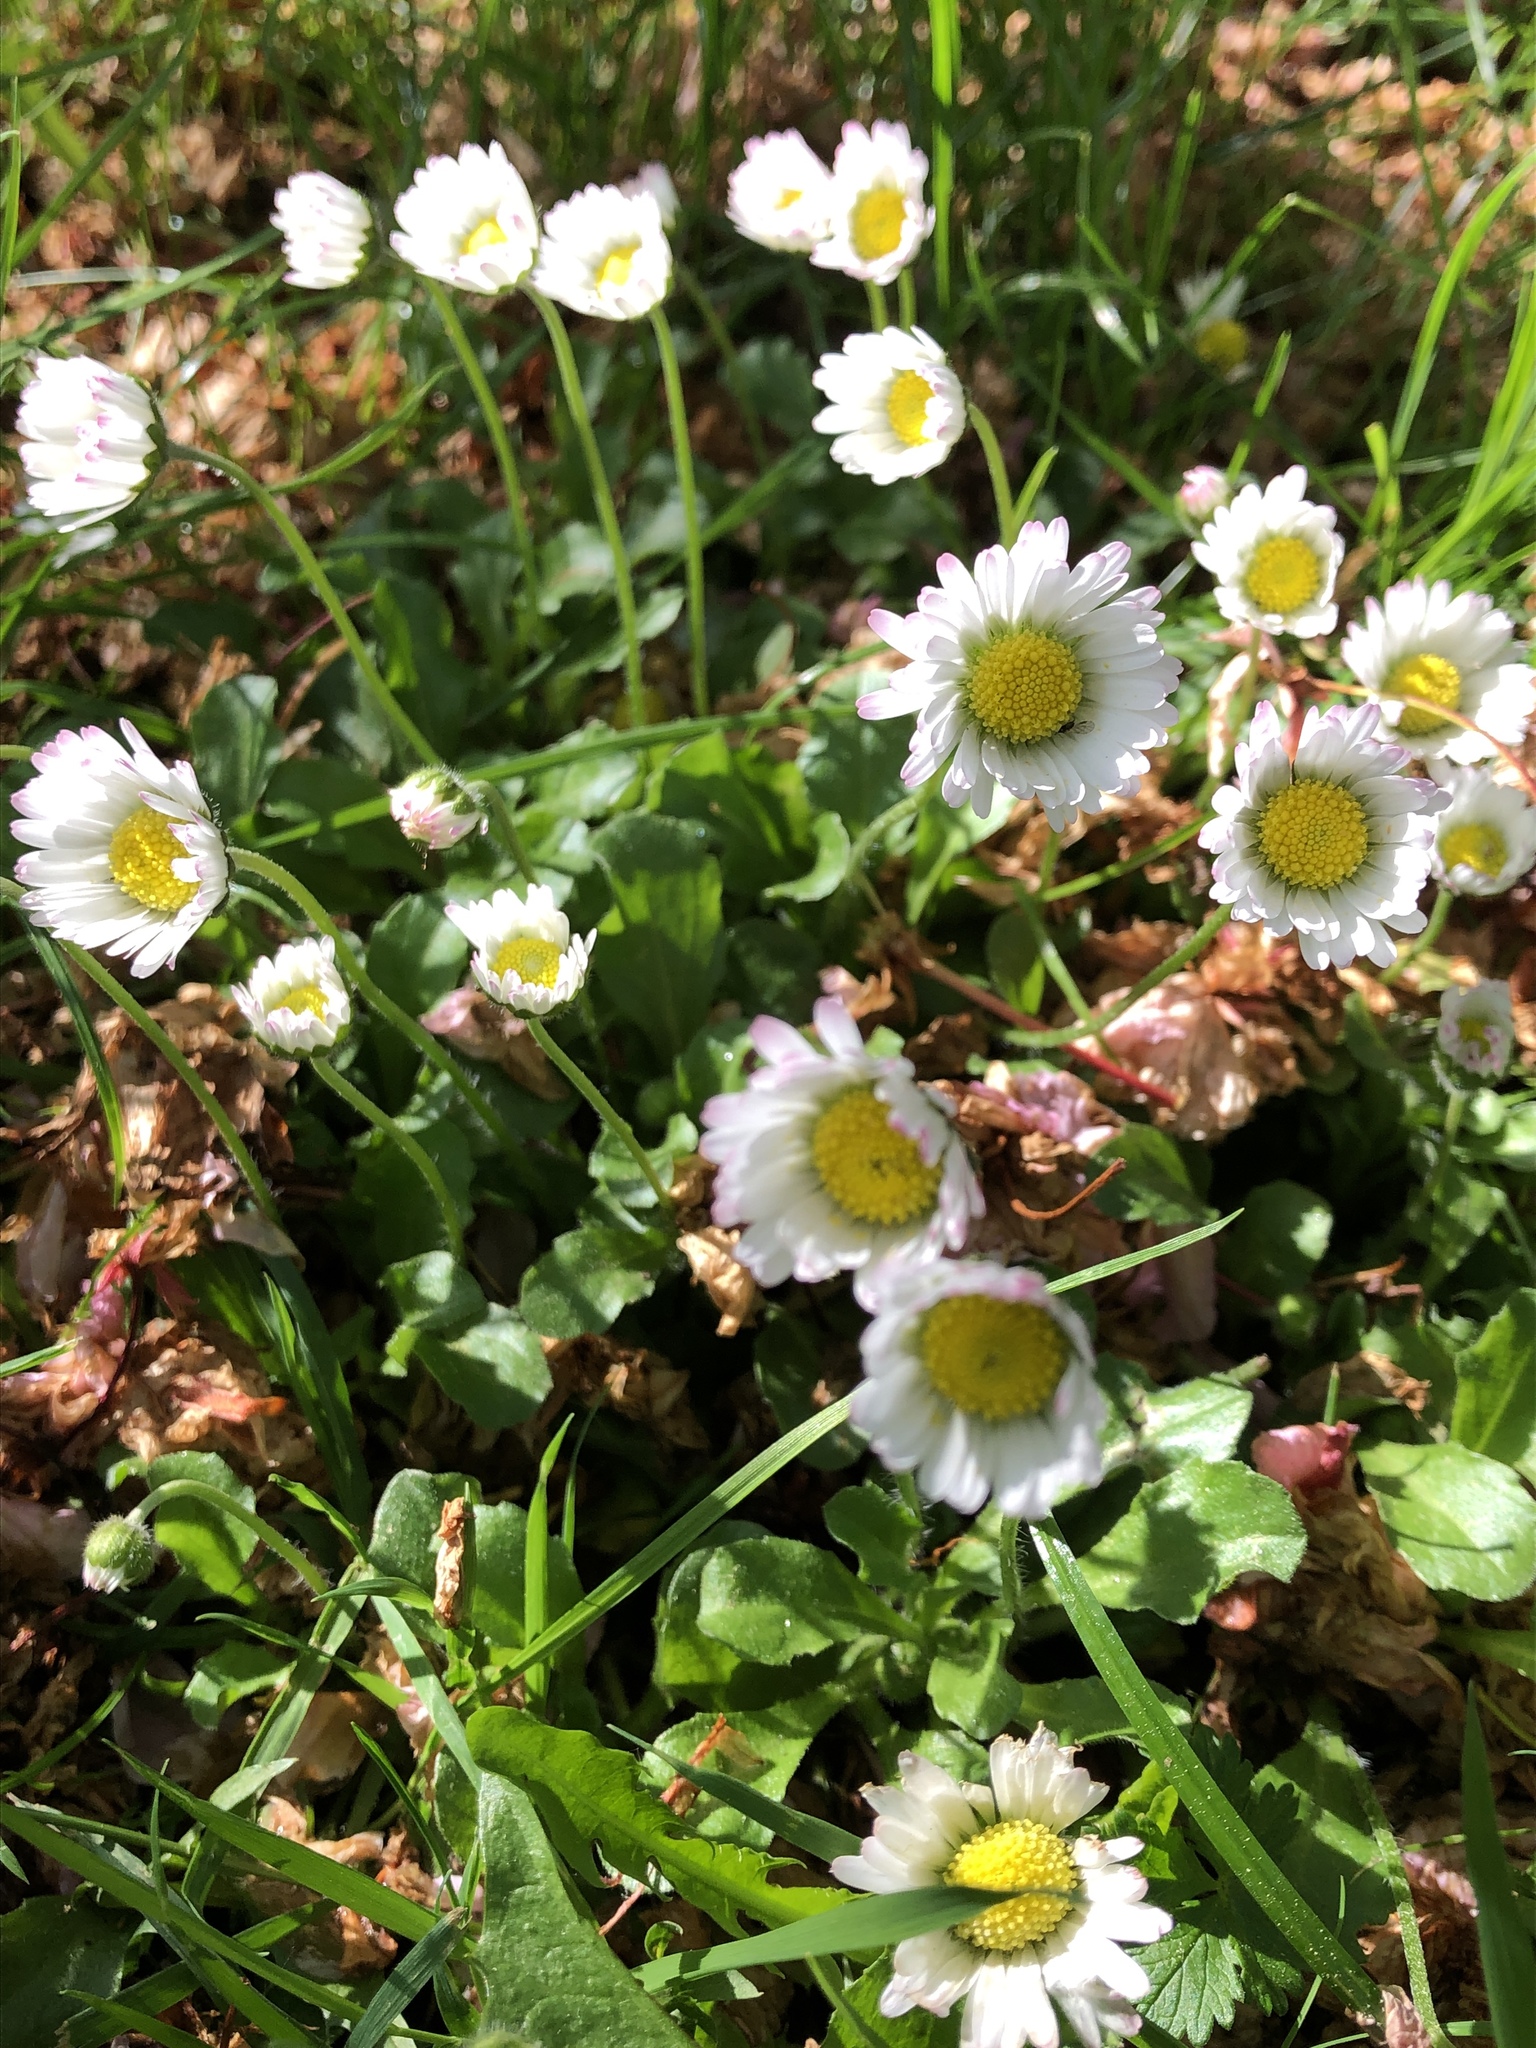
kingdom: Plantae
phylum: Tracheophyta
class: Magnoliopsida
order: Asterales
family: Asteraceae
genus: Bellis
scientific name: Bellis perennis
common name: Lawndaisy
